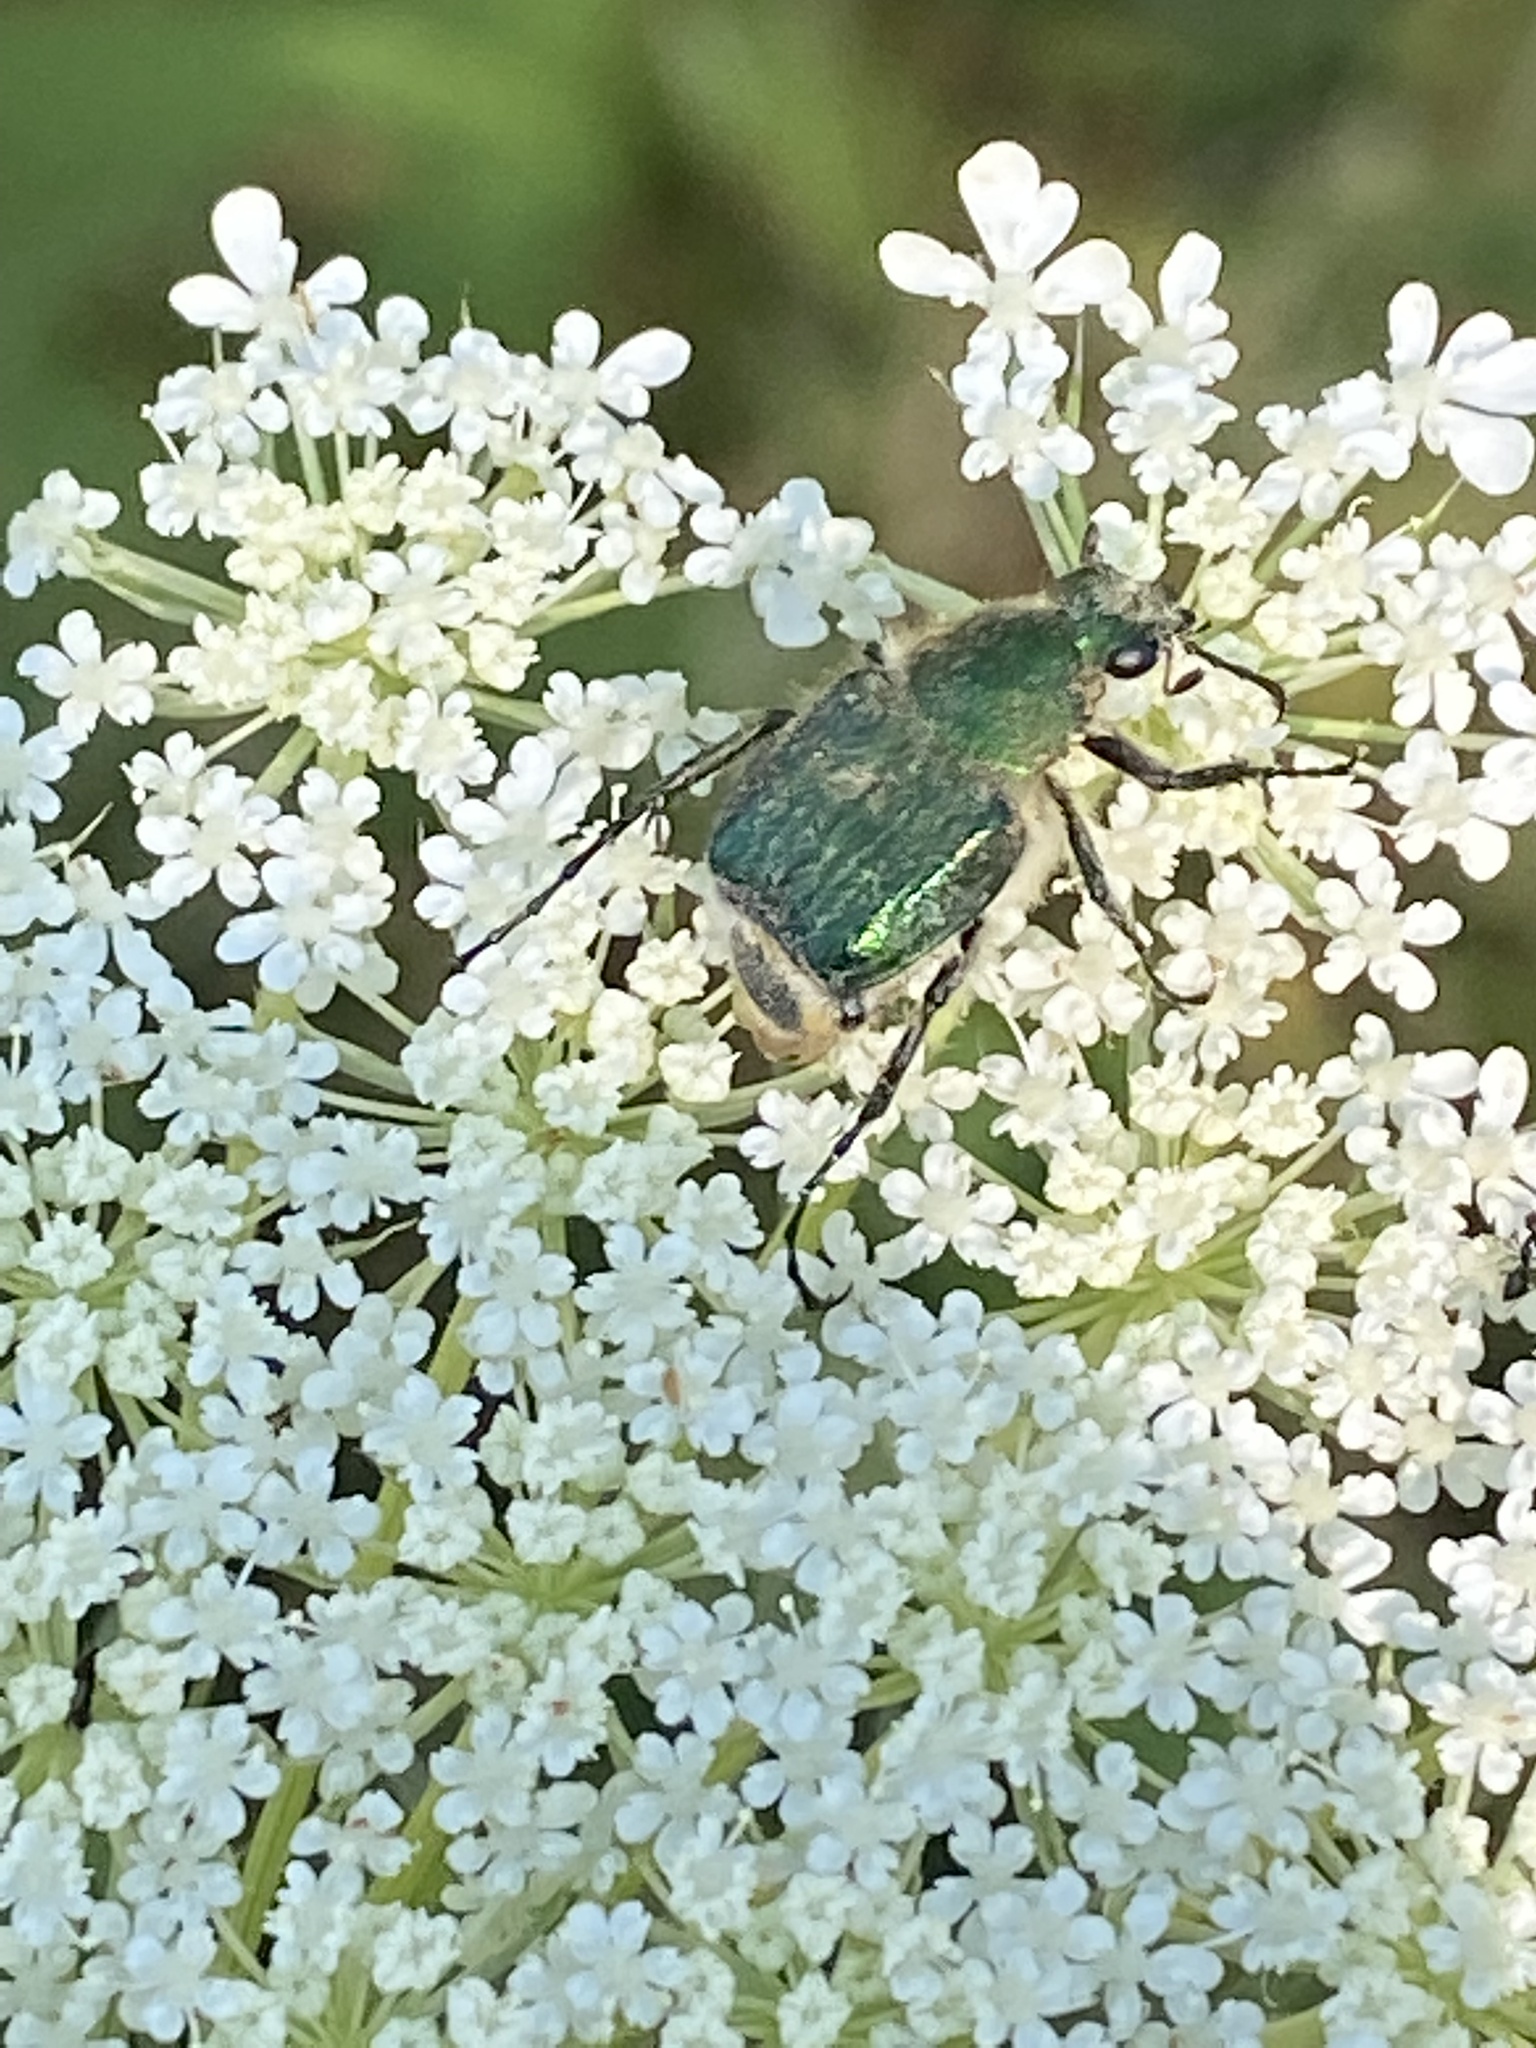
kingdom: Animalia
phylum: Arthropoda
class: Insecta
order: Coleoptera
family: Scarabaeidae
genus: Trichiotinus
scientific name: Trichiotinus lunulatus
